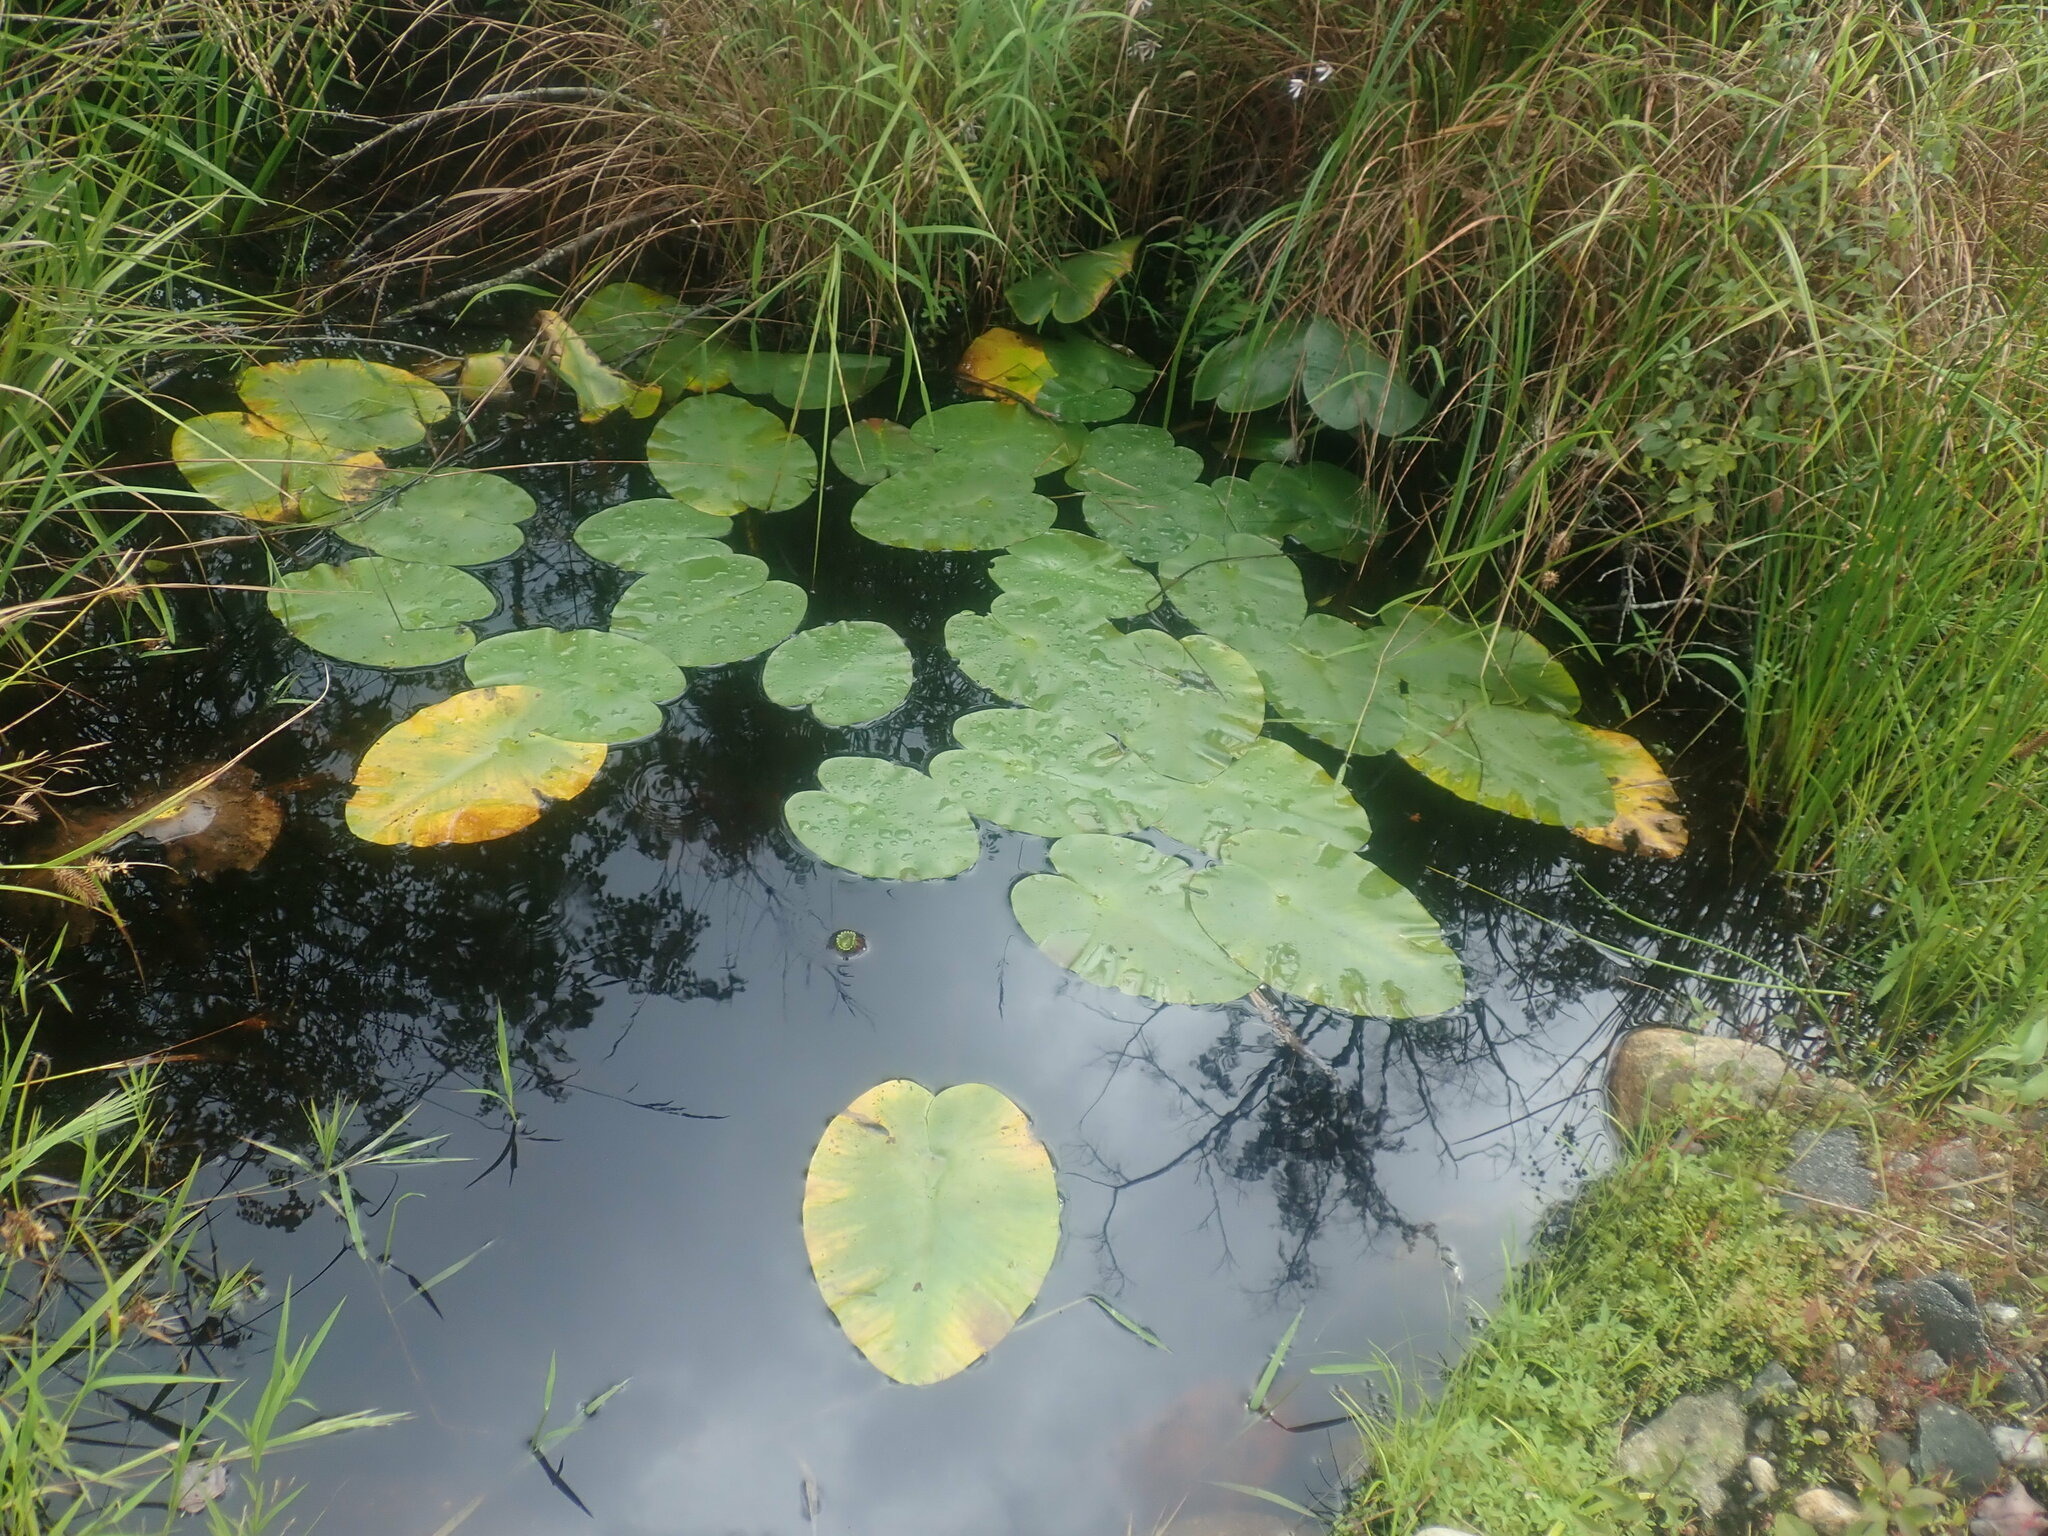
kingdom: Plantae
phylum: Tracheophyta
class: Magnoliopsida
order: Nymphaeales
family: Nymphaeaceae
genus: Nuphar
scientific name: Nuphar variegata
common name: Beaver-root
